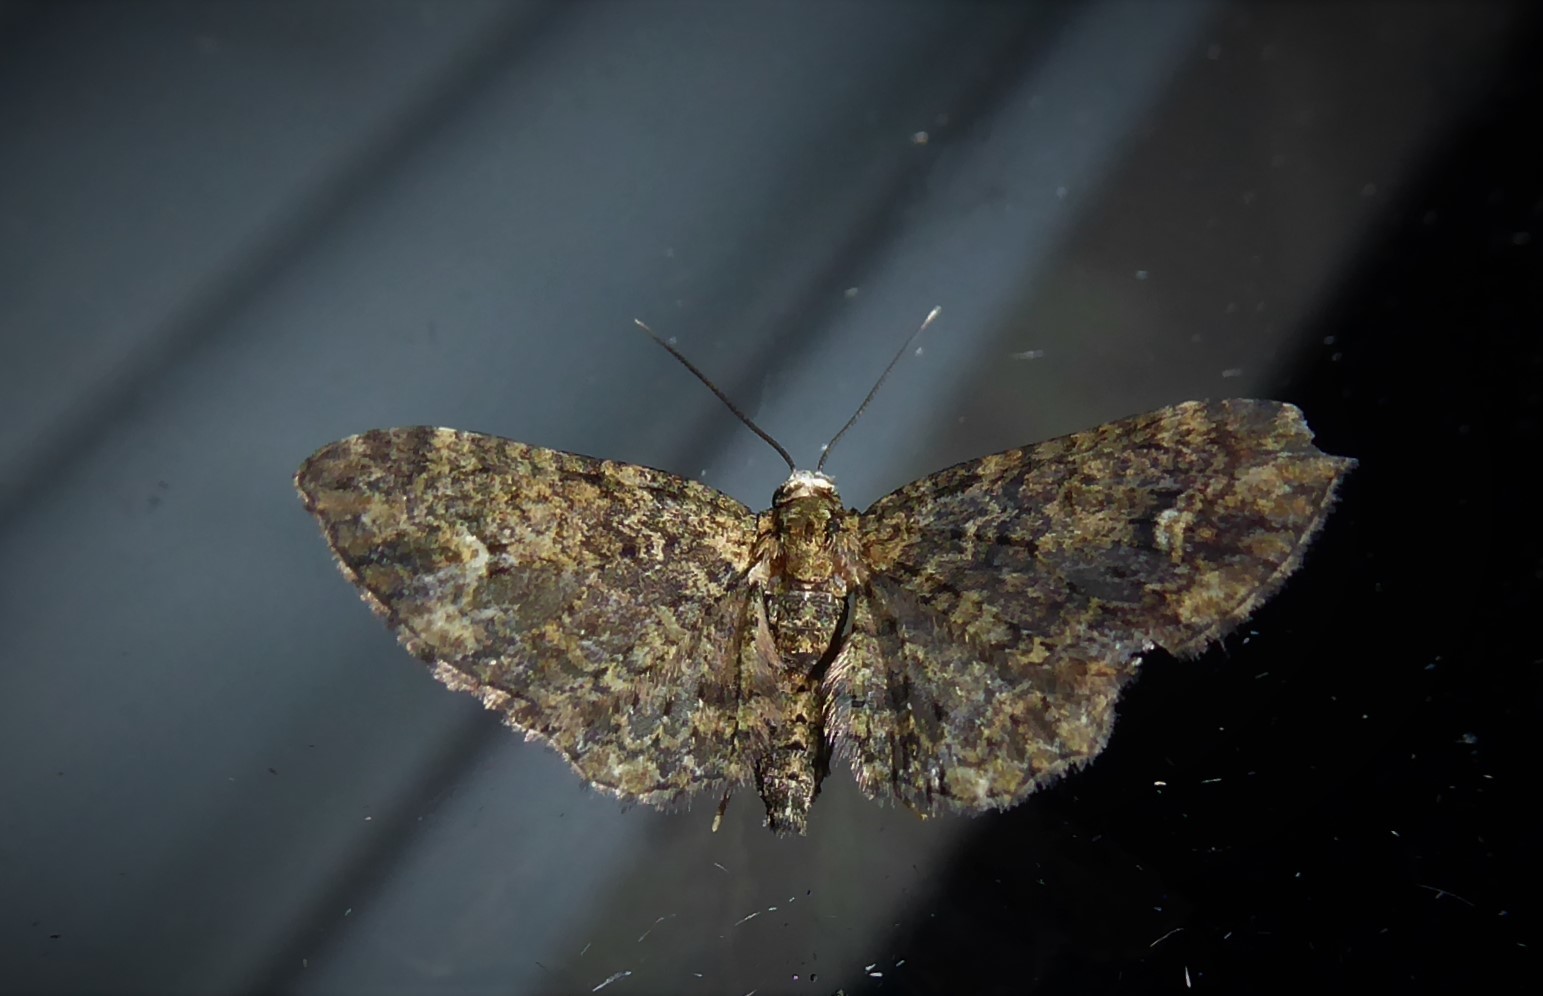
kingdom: Animalia
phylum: Arthropoda
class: Insecta
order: Lepidoptera
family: Geometridae
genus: Pasiphilodes
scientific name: Pasiphilodes testulata
